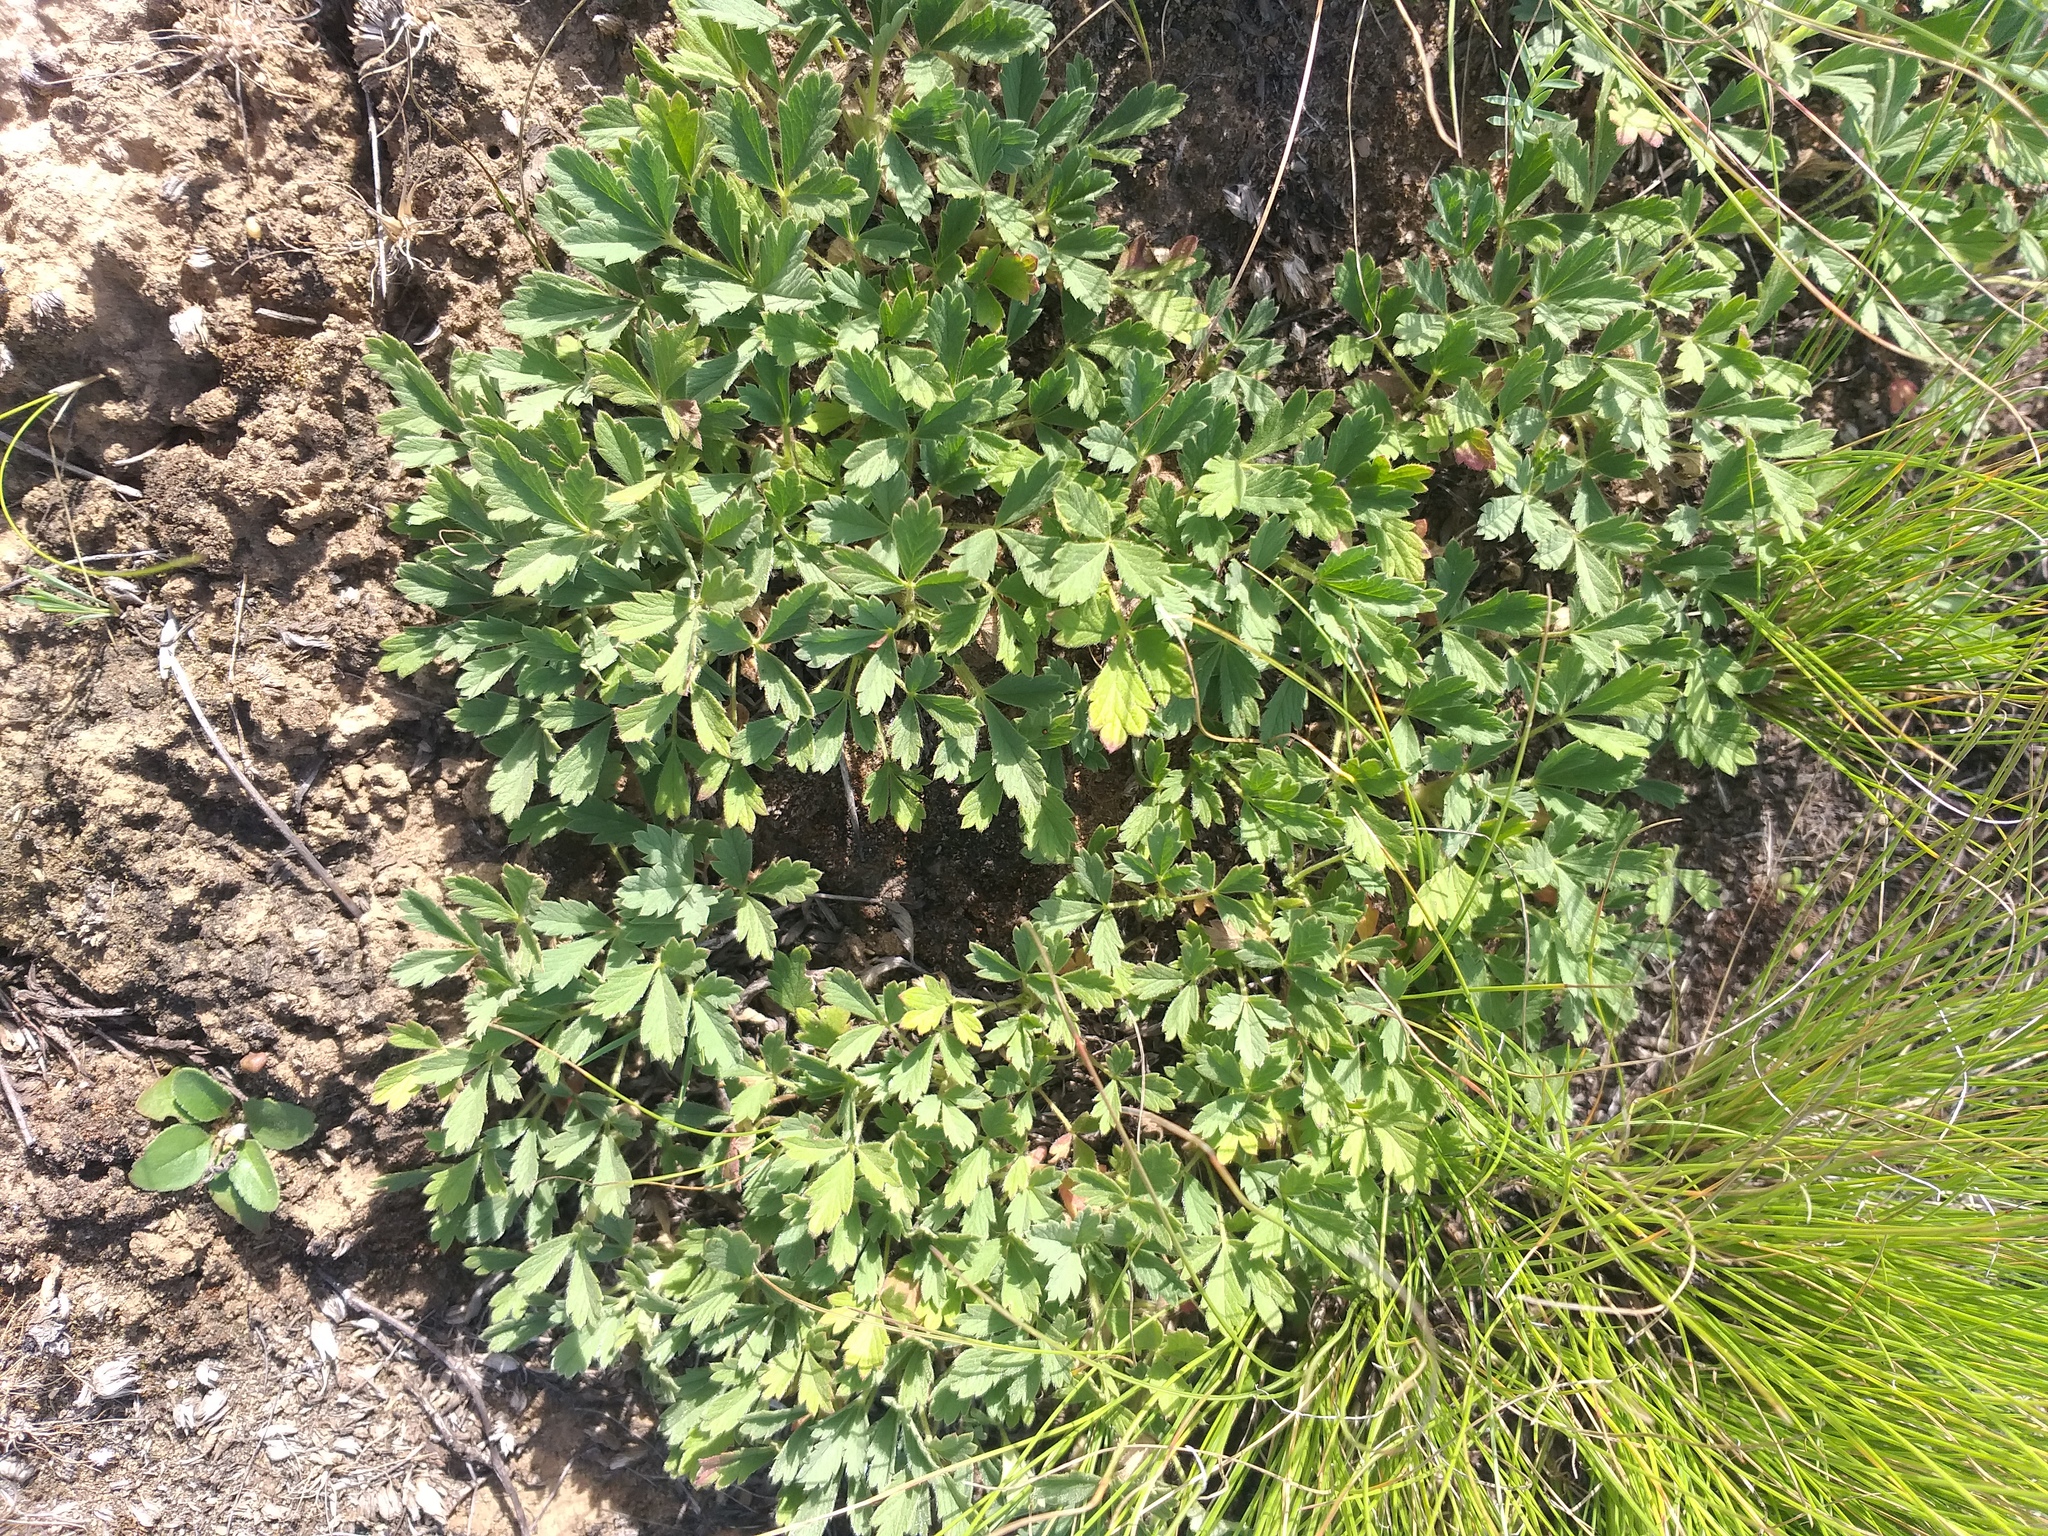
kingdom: Plantae
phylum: Tracheophyta
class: Magnoliopsida
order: Rosales
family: Rosaceae
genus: Potentilla
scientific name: Potentilla incana
